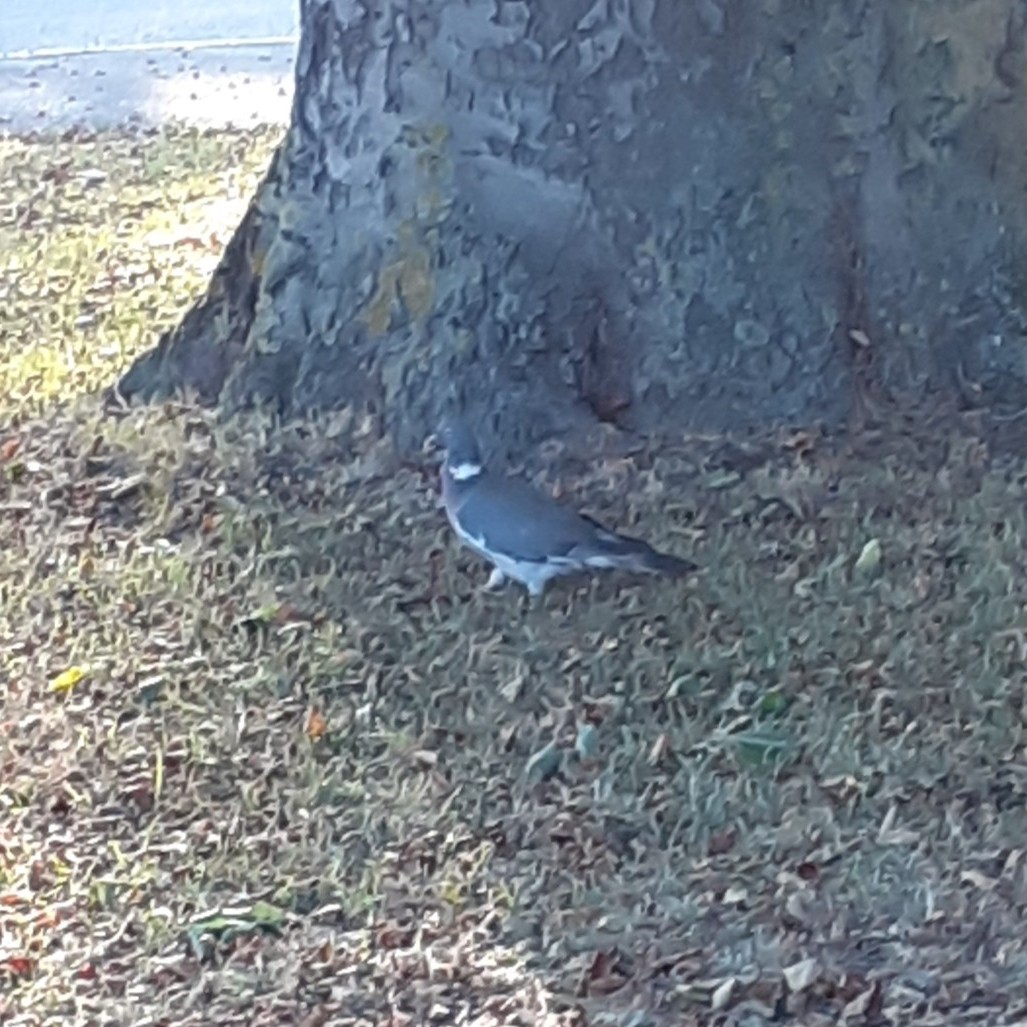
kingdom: Animalia
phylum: Chordata
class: Aves
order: Columbiformes
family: Columbidae
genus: Columba
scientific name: Columba palumbus
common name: Common wood pigeon
